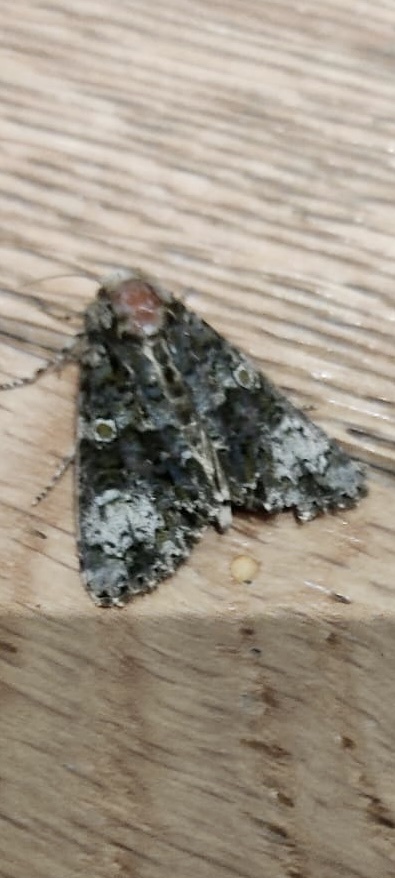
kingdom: Animalia
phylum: Arthropoda
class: Insecta
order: Lepidoptera
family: Noctuidae
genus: Craniophora
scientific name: Craniophora ligustri
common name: Coronet
